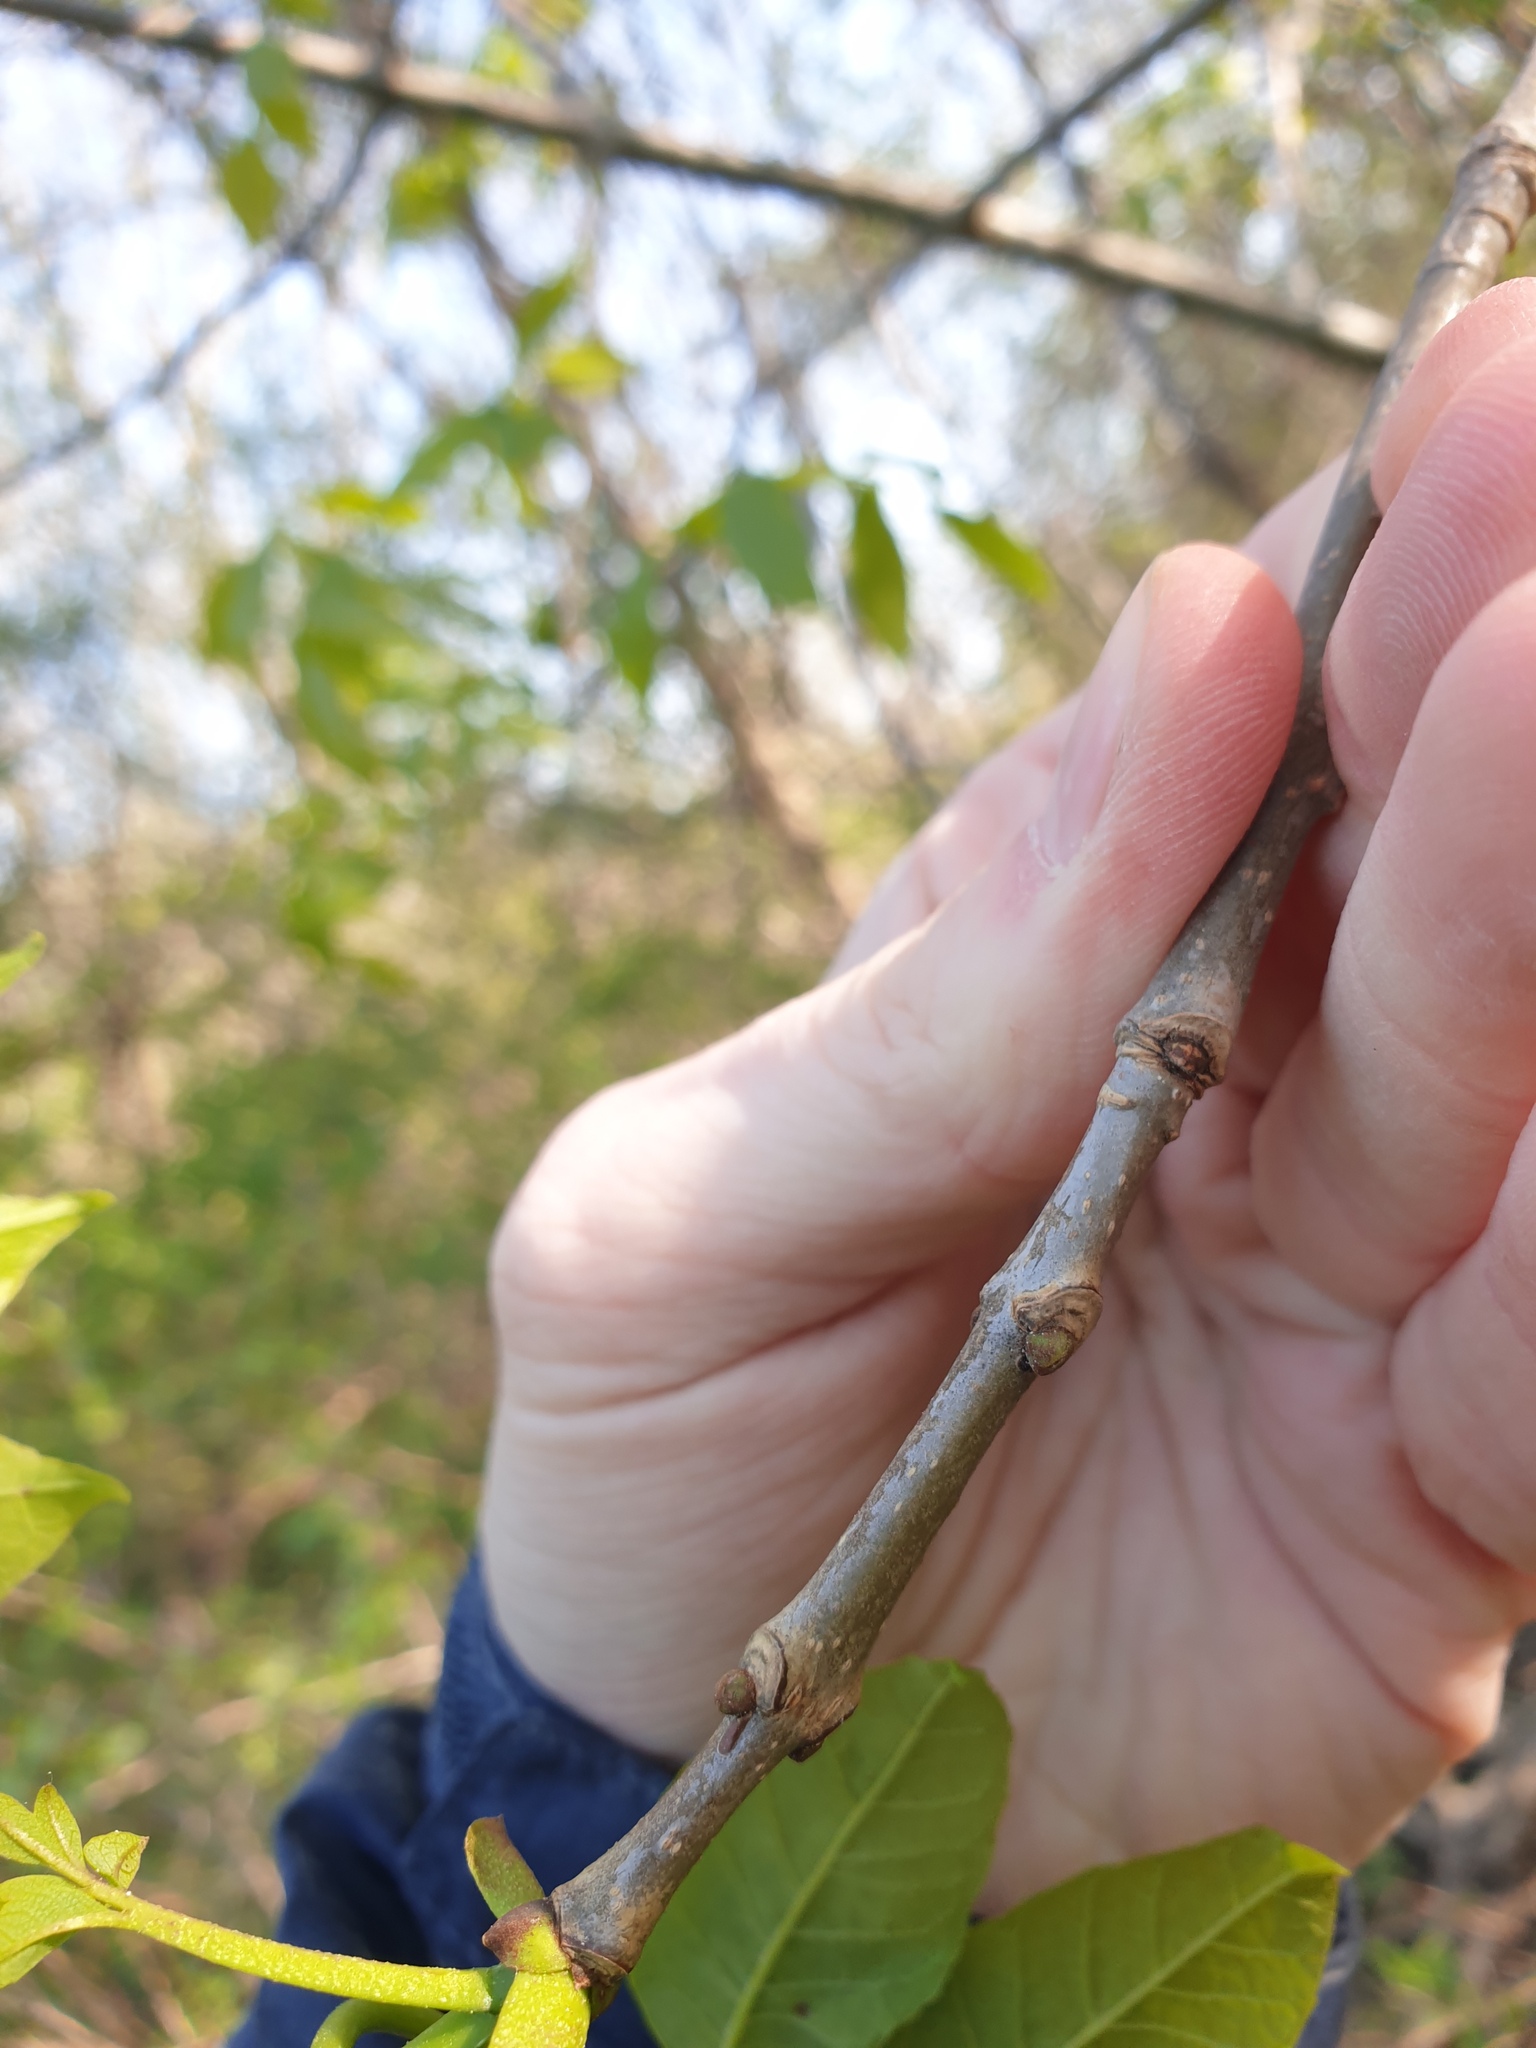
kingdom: Plantae
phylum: Tracheophyta
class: Magnoliopsida
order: Lamiales
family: Oleaceae
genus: Fraxinus
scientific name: Fraxinus americana
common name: White ash
